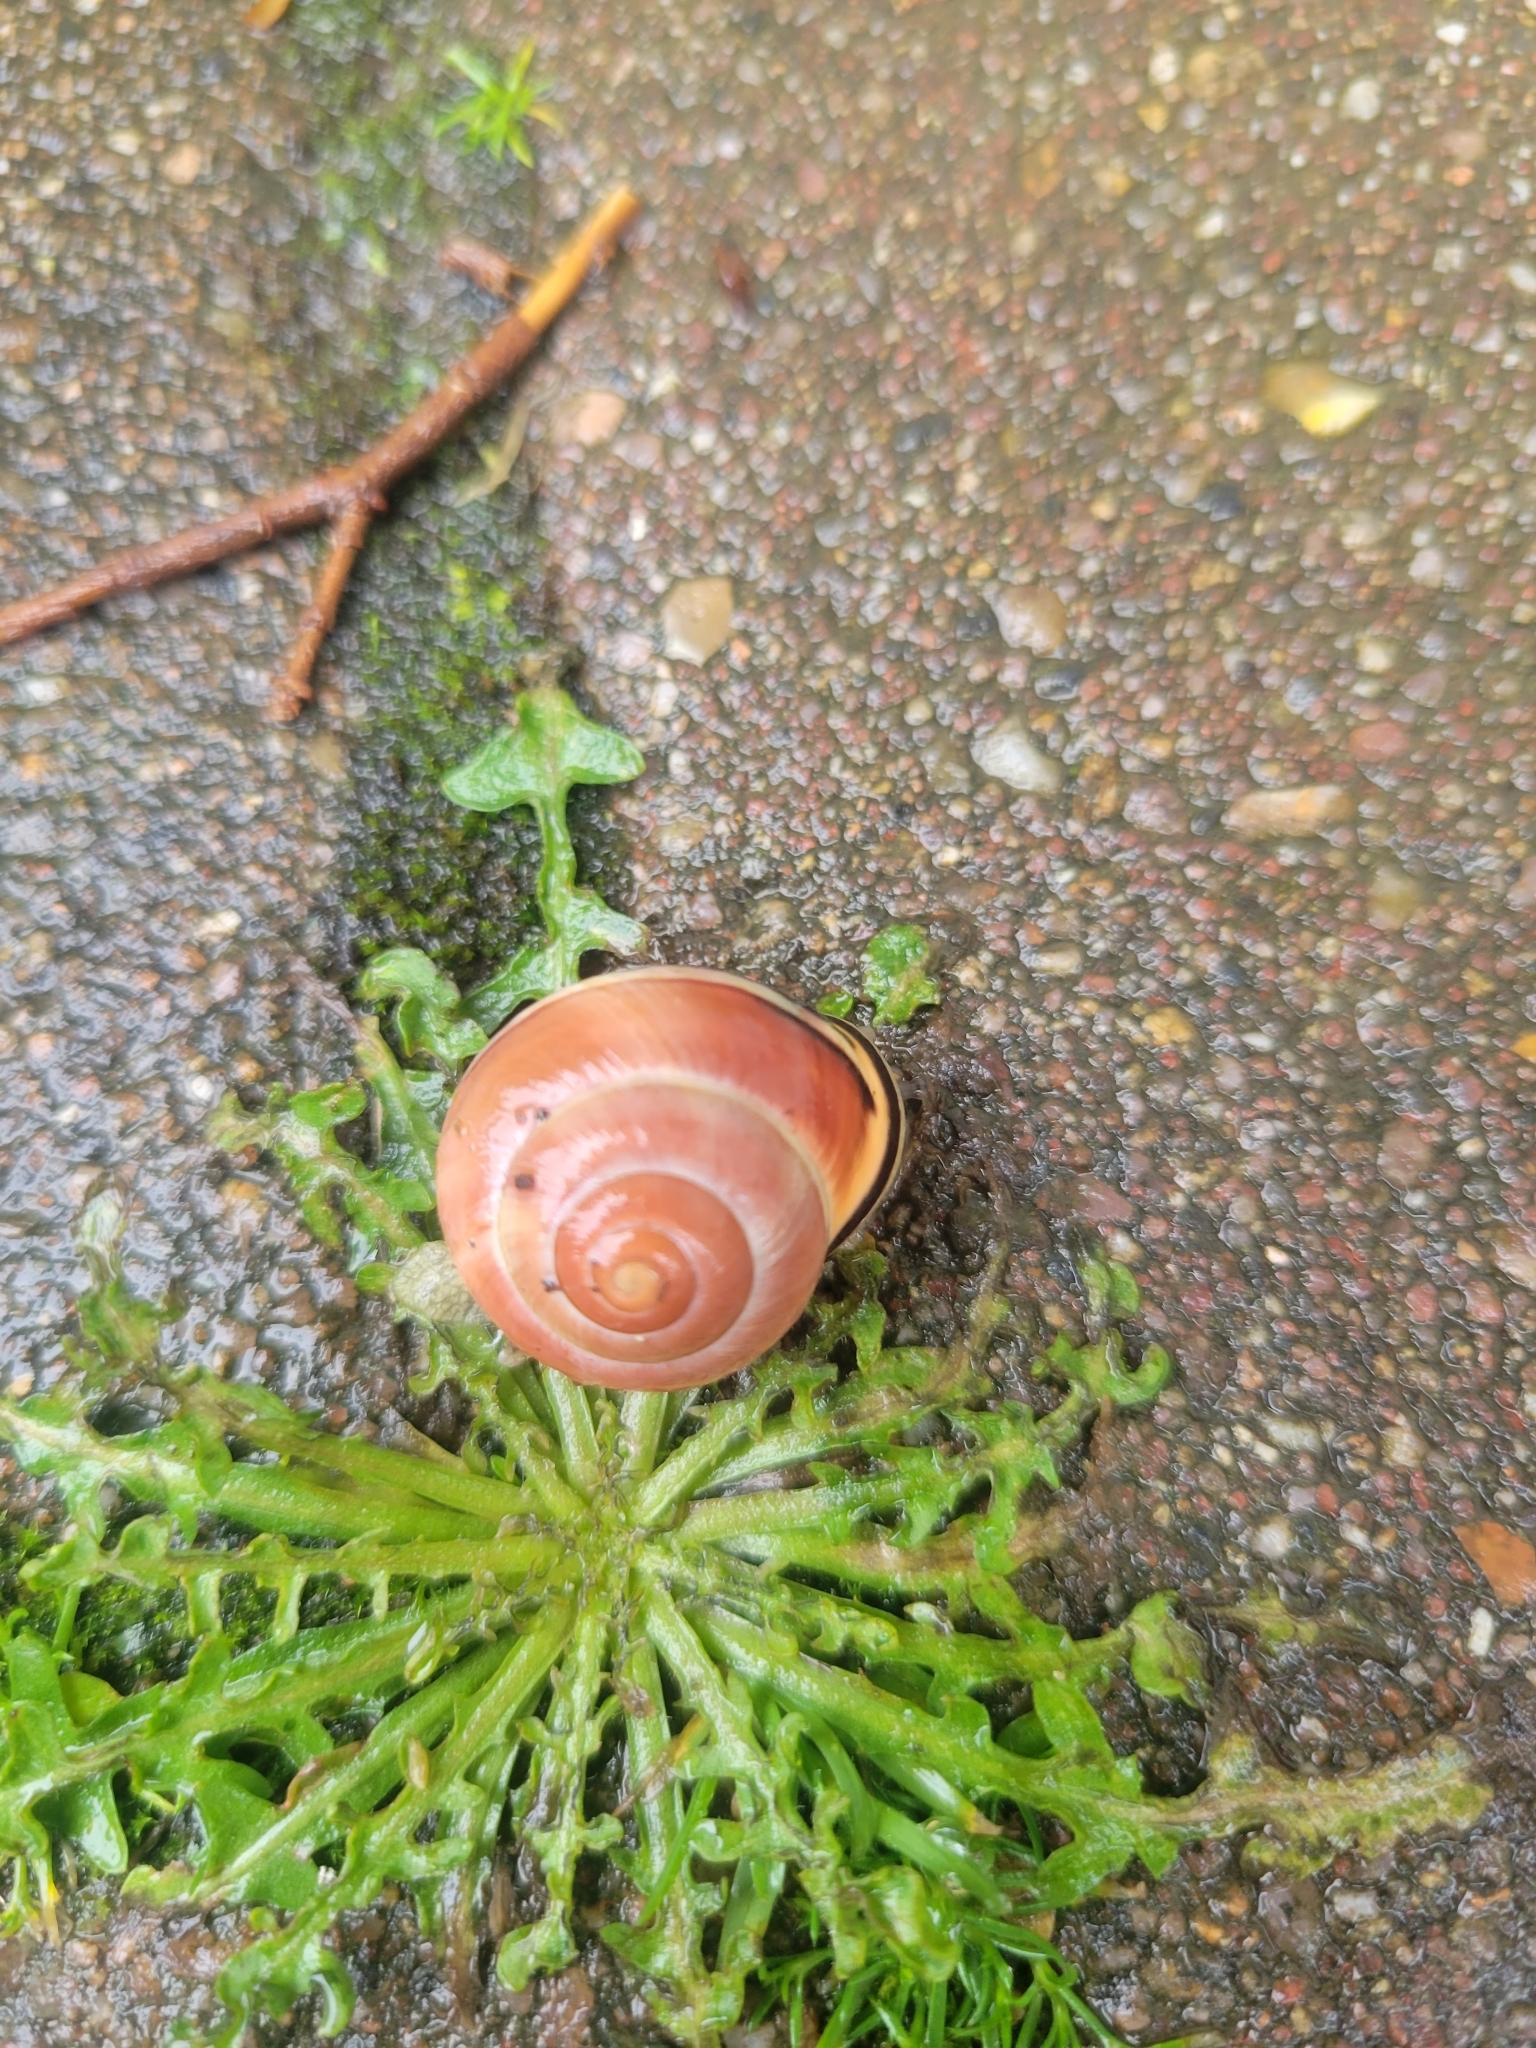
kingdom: Animalia
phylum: Mollusca
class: Gastropoda
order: Stylommatophora
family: Helicidae
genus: Cepaea
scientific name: Cepaea nemoralis
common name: Grovesnail
